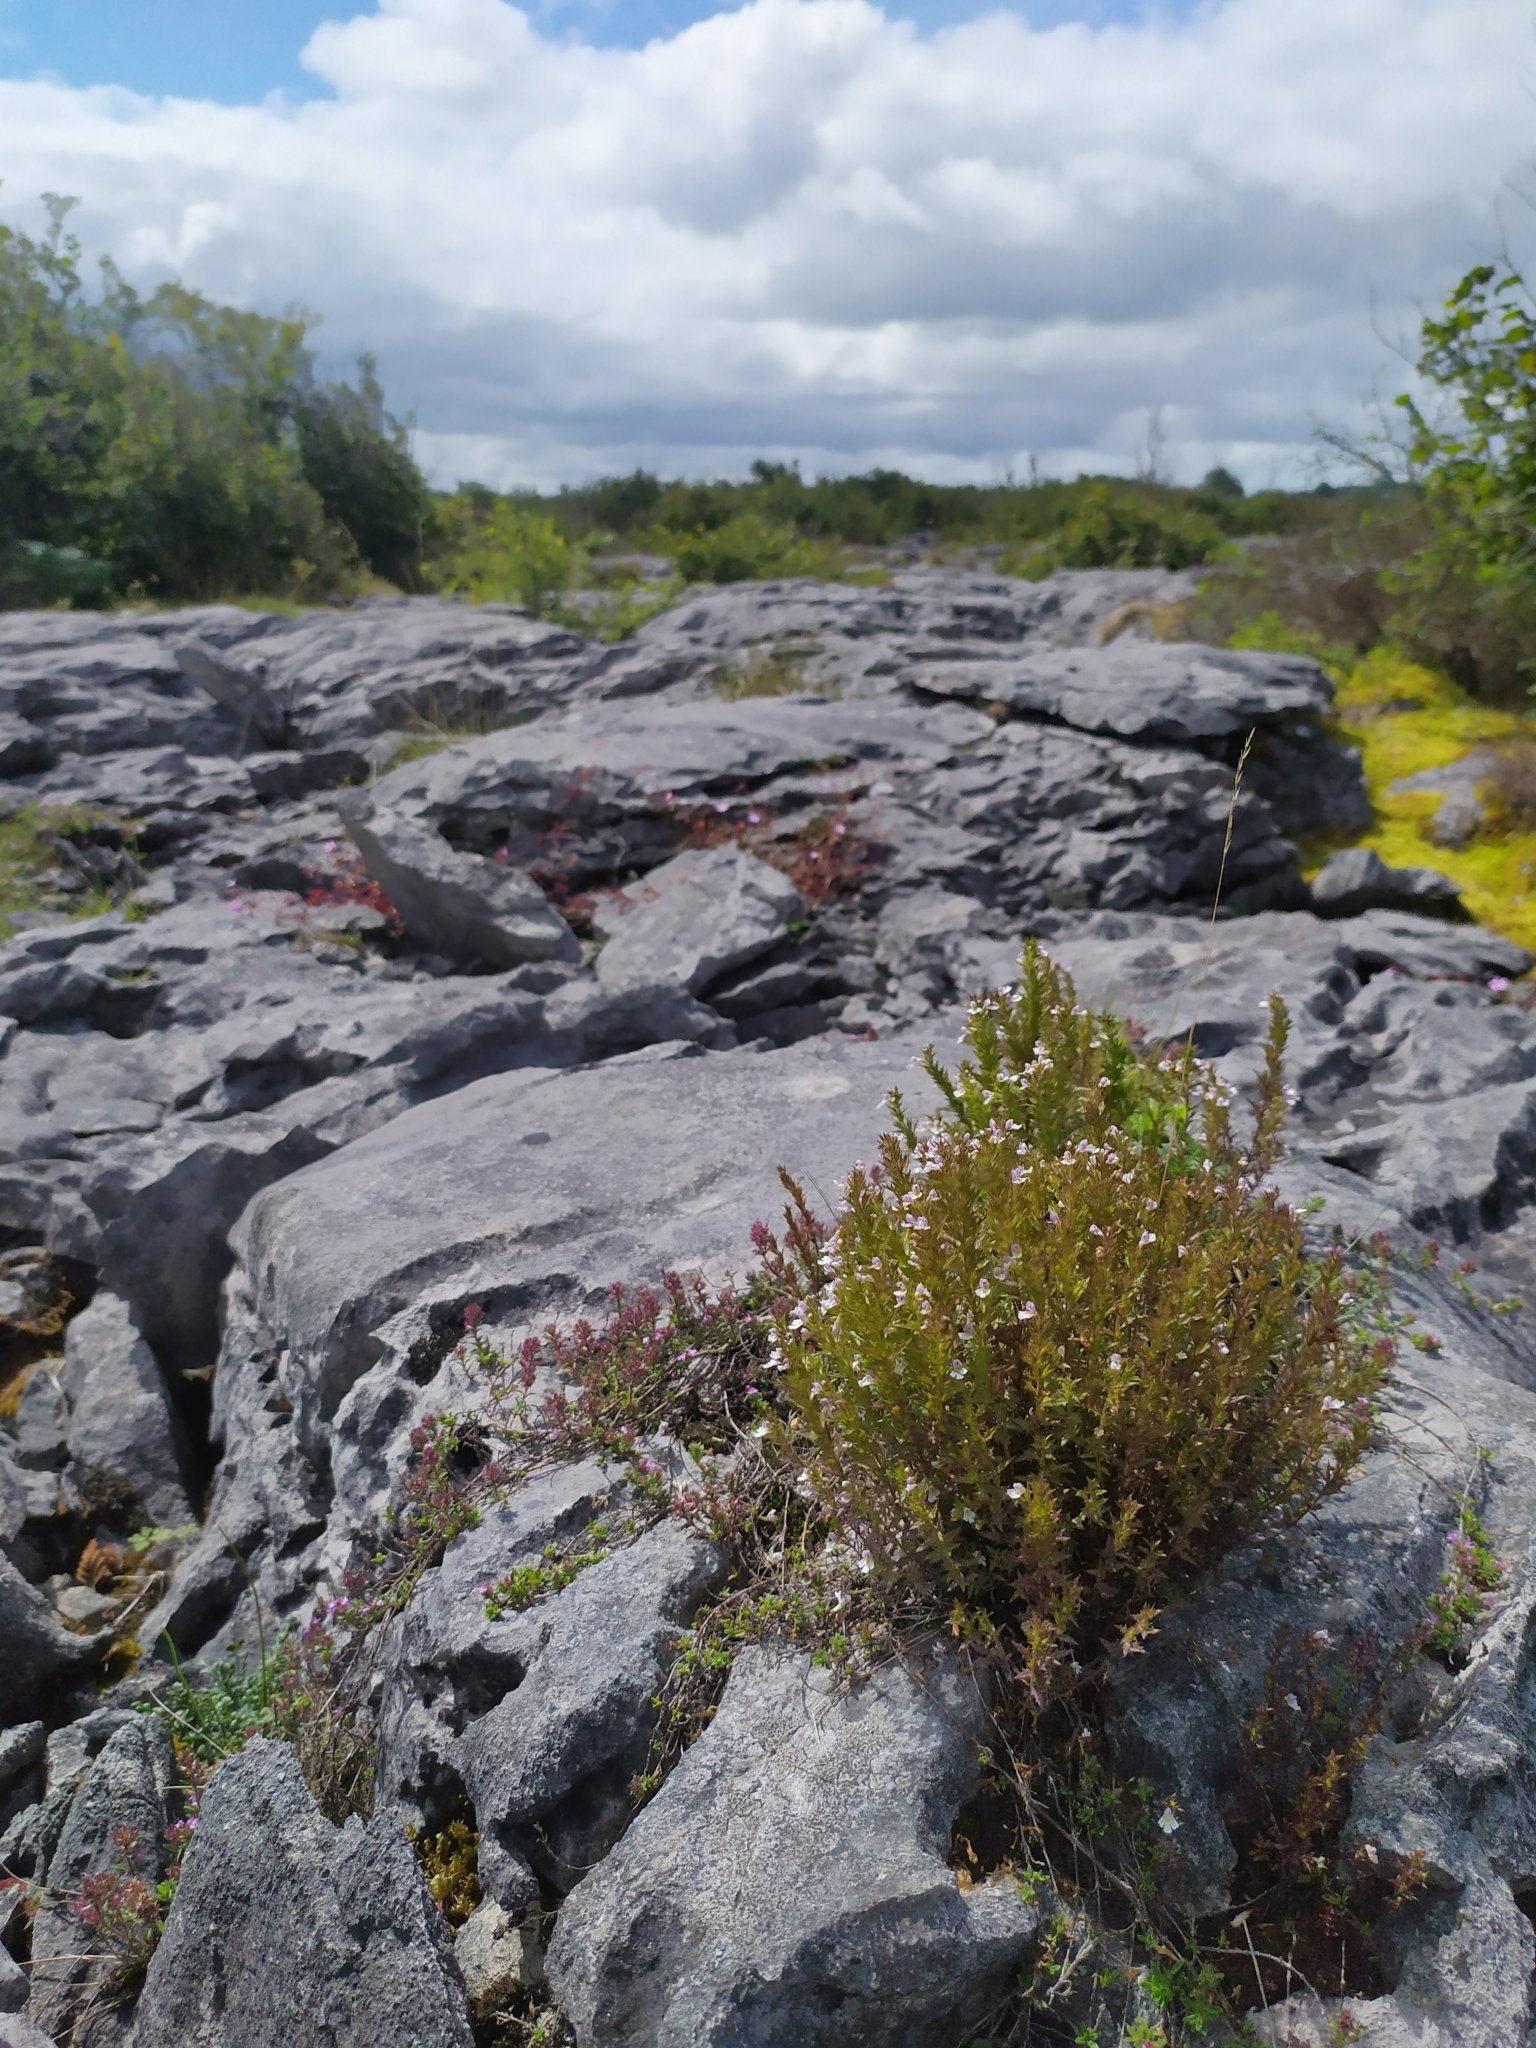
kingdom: Plantae
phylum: Tracheophyta
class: Magnoliopsida
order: Lamiales
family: Orobanchaceae
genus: Euphrasia
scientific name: Euphrasia salisburgensis
